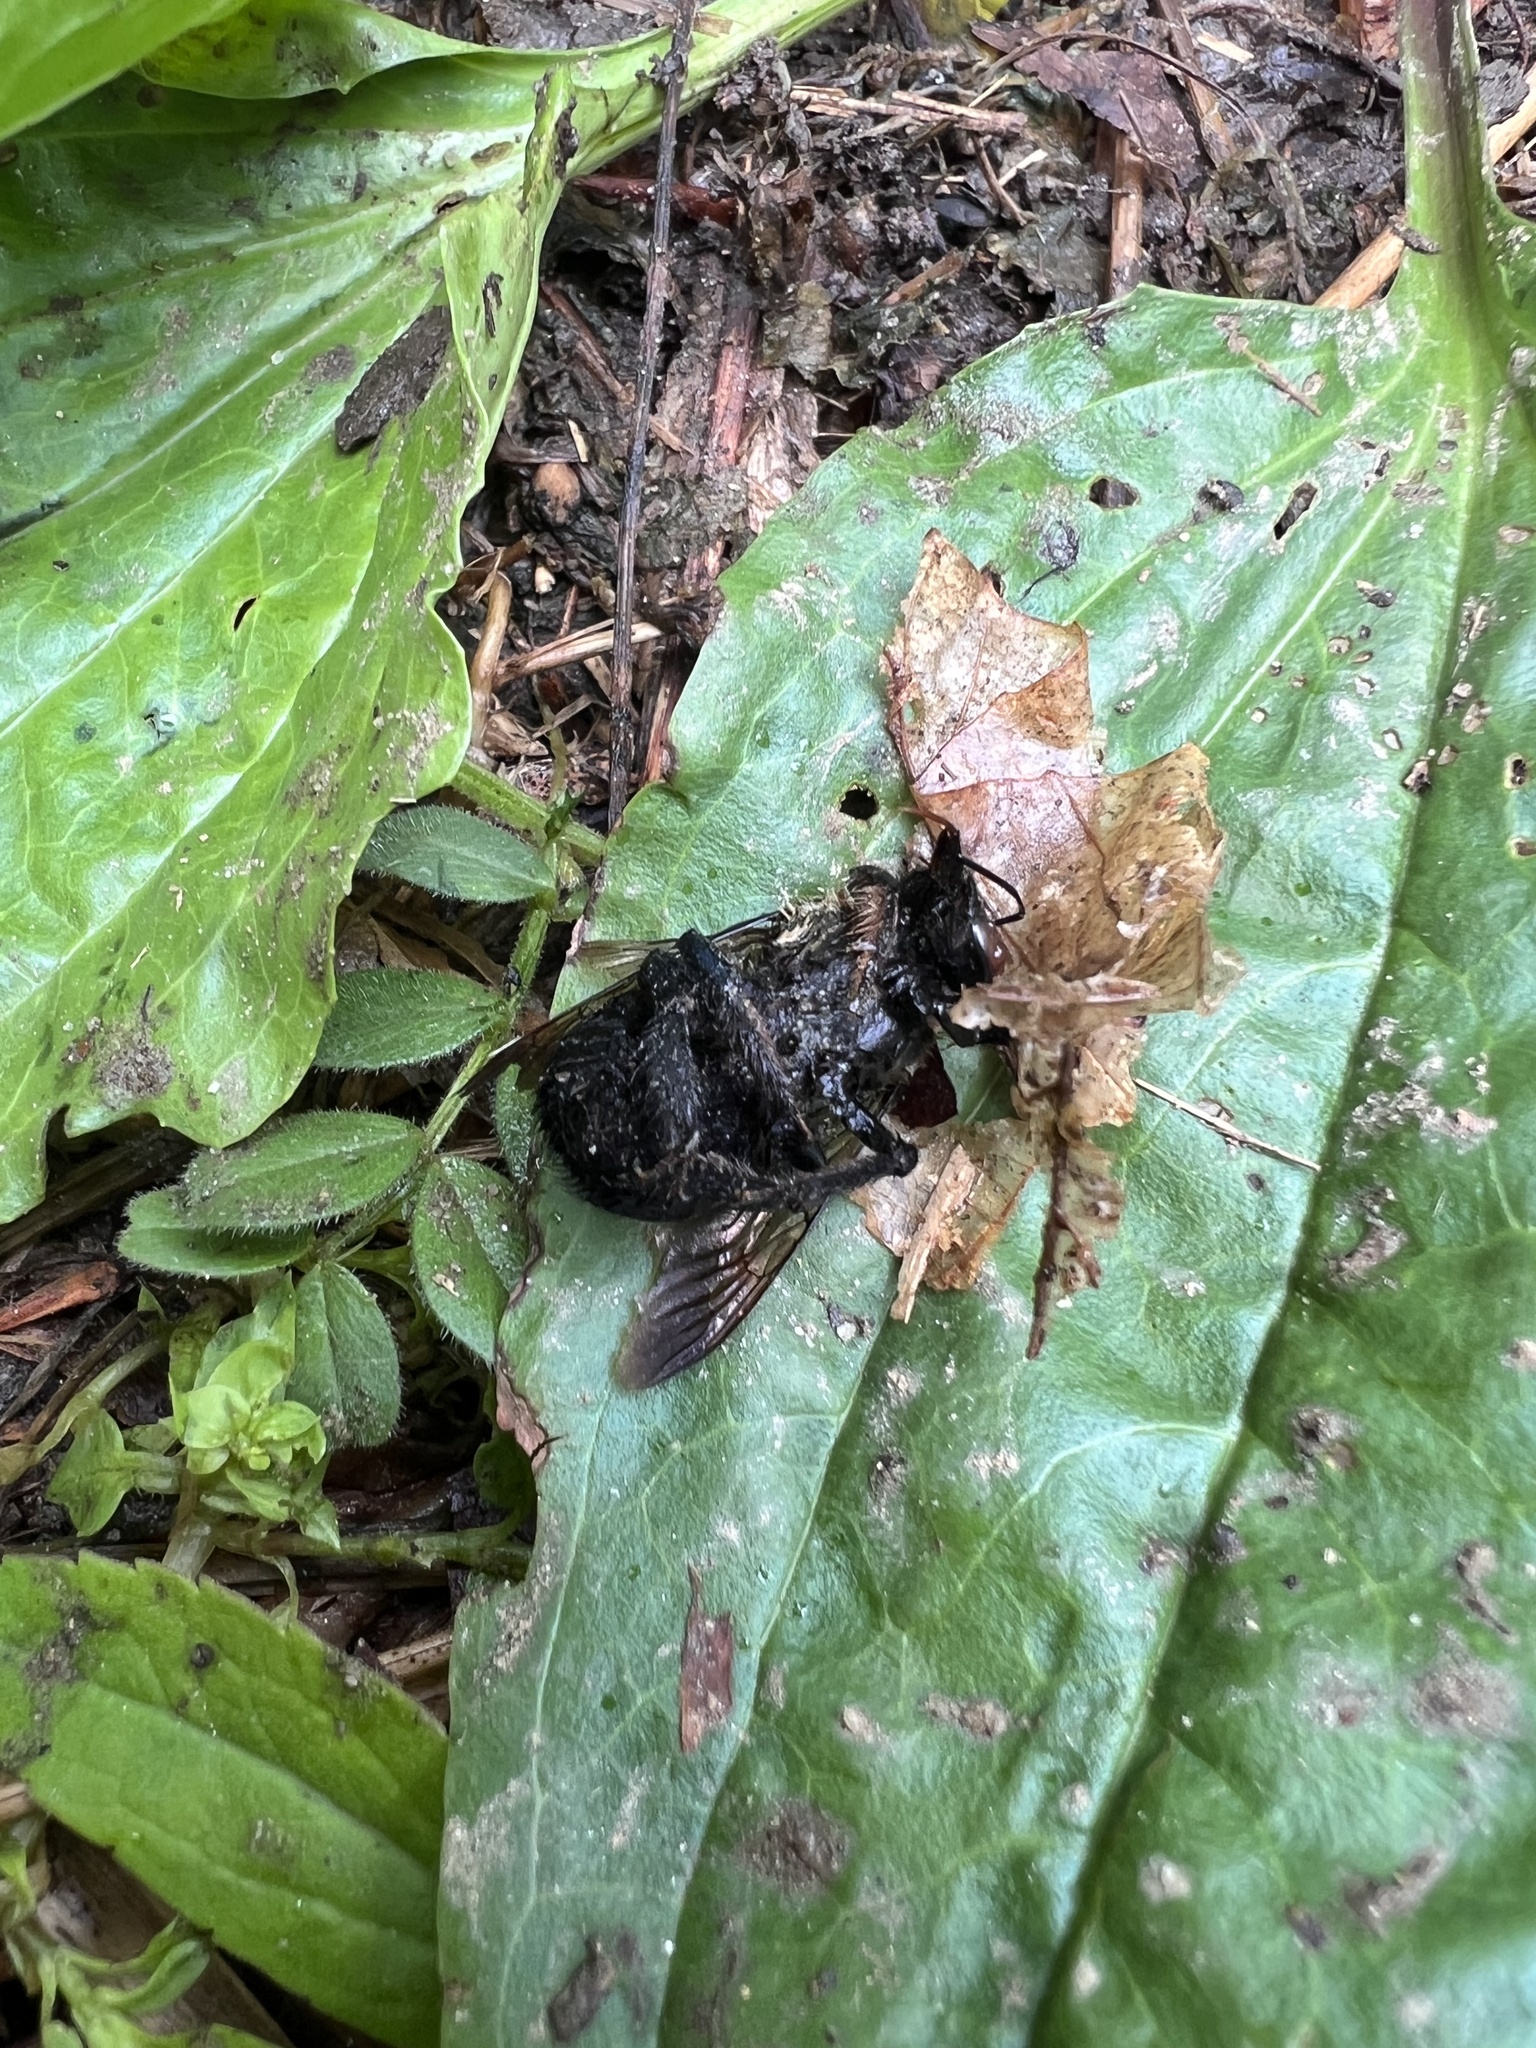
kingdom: Animalia
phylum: Arthropoda
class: Insecta
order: Hymenoptera
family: Apidae
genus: Xylocopa
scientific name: Xylocopa virginica
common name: Carpenter bee
